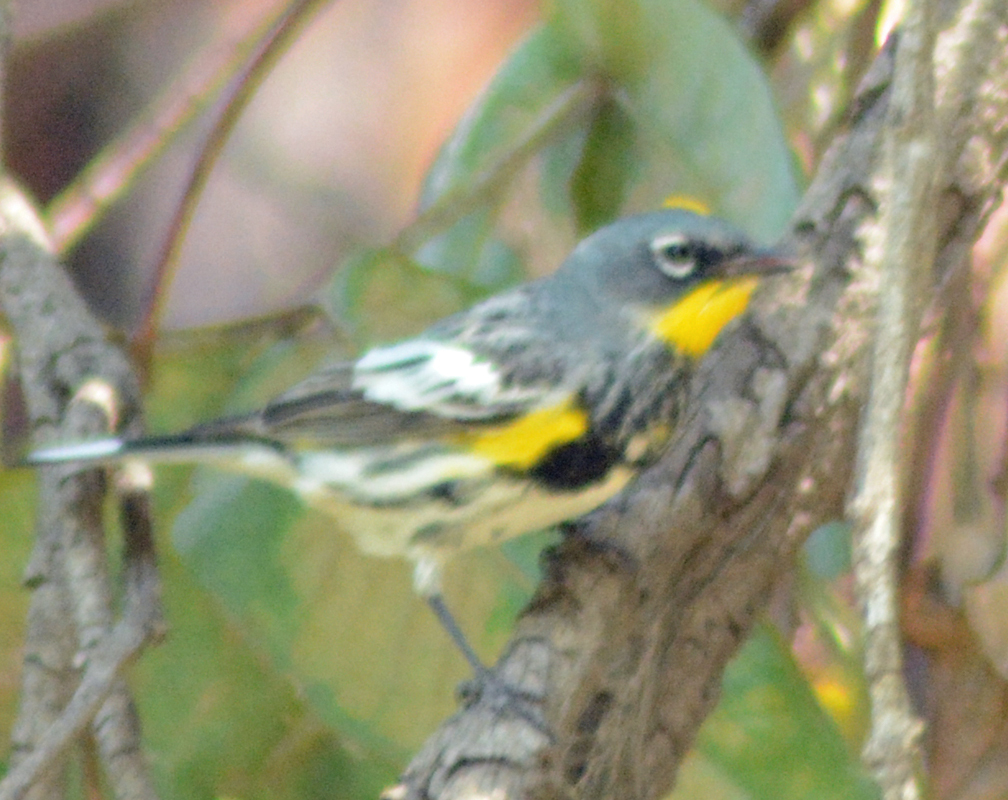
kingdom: Animalia
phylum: Chordata
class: Aves
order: Passeriformes
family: Parulidae
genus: Setophaga
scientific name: Setophaga auduboni
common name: Audubon's warbler
